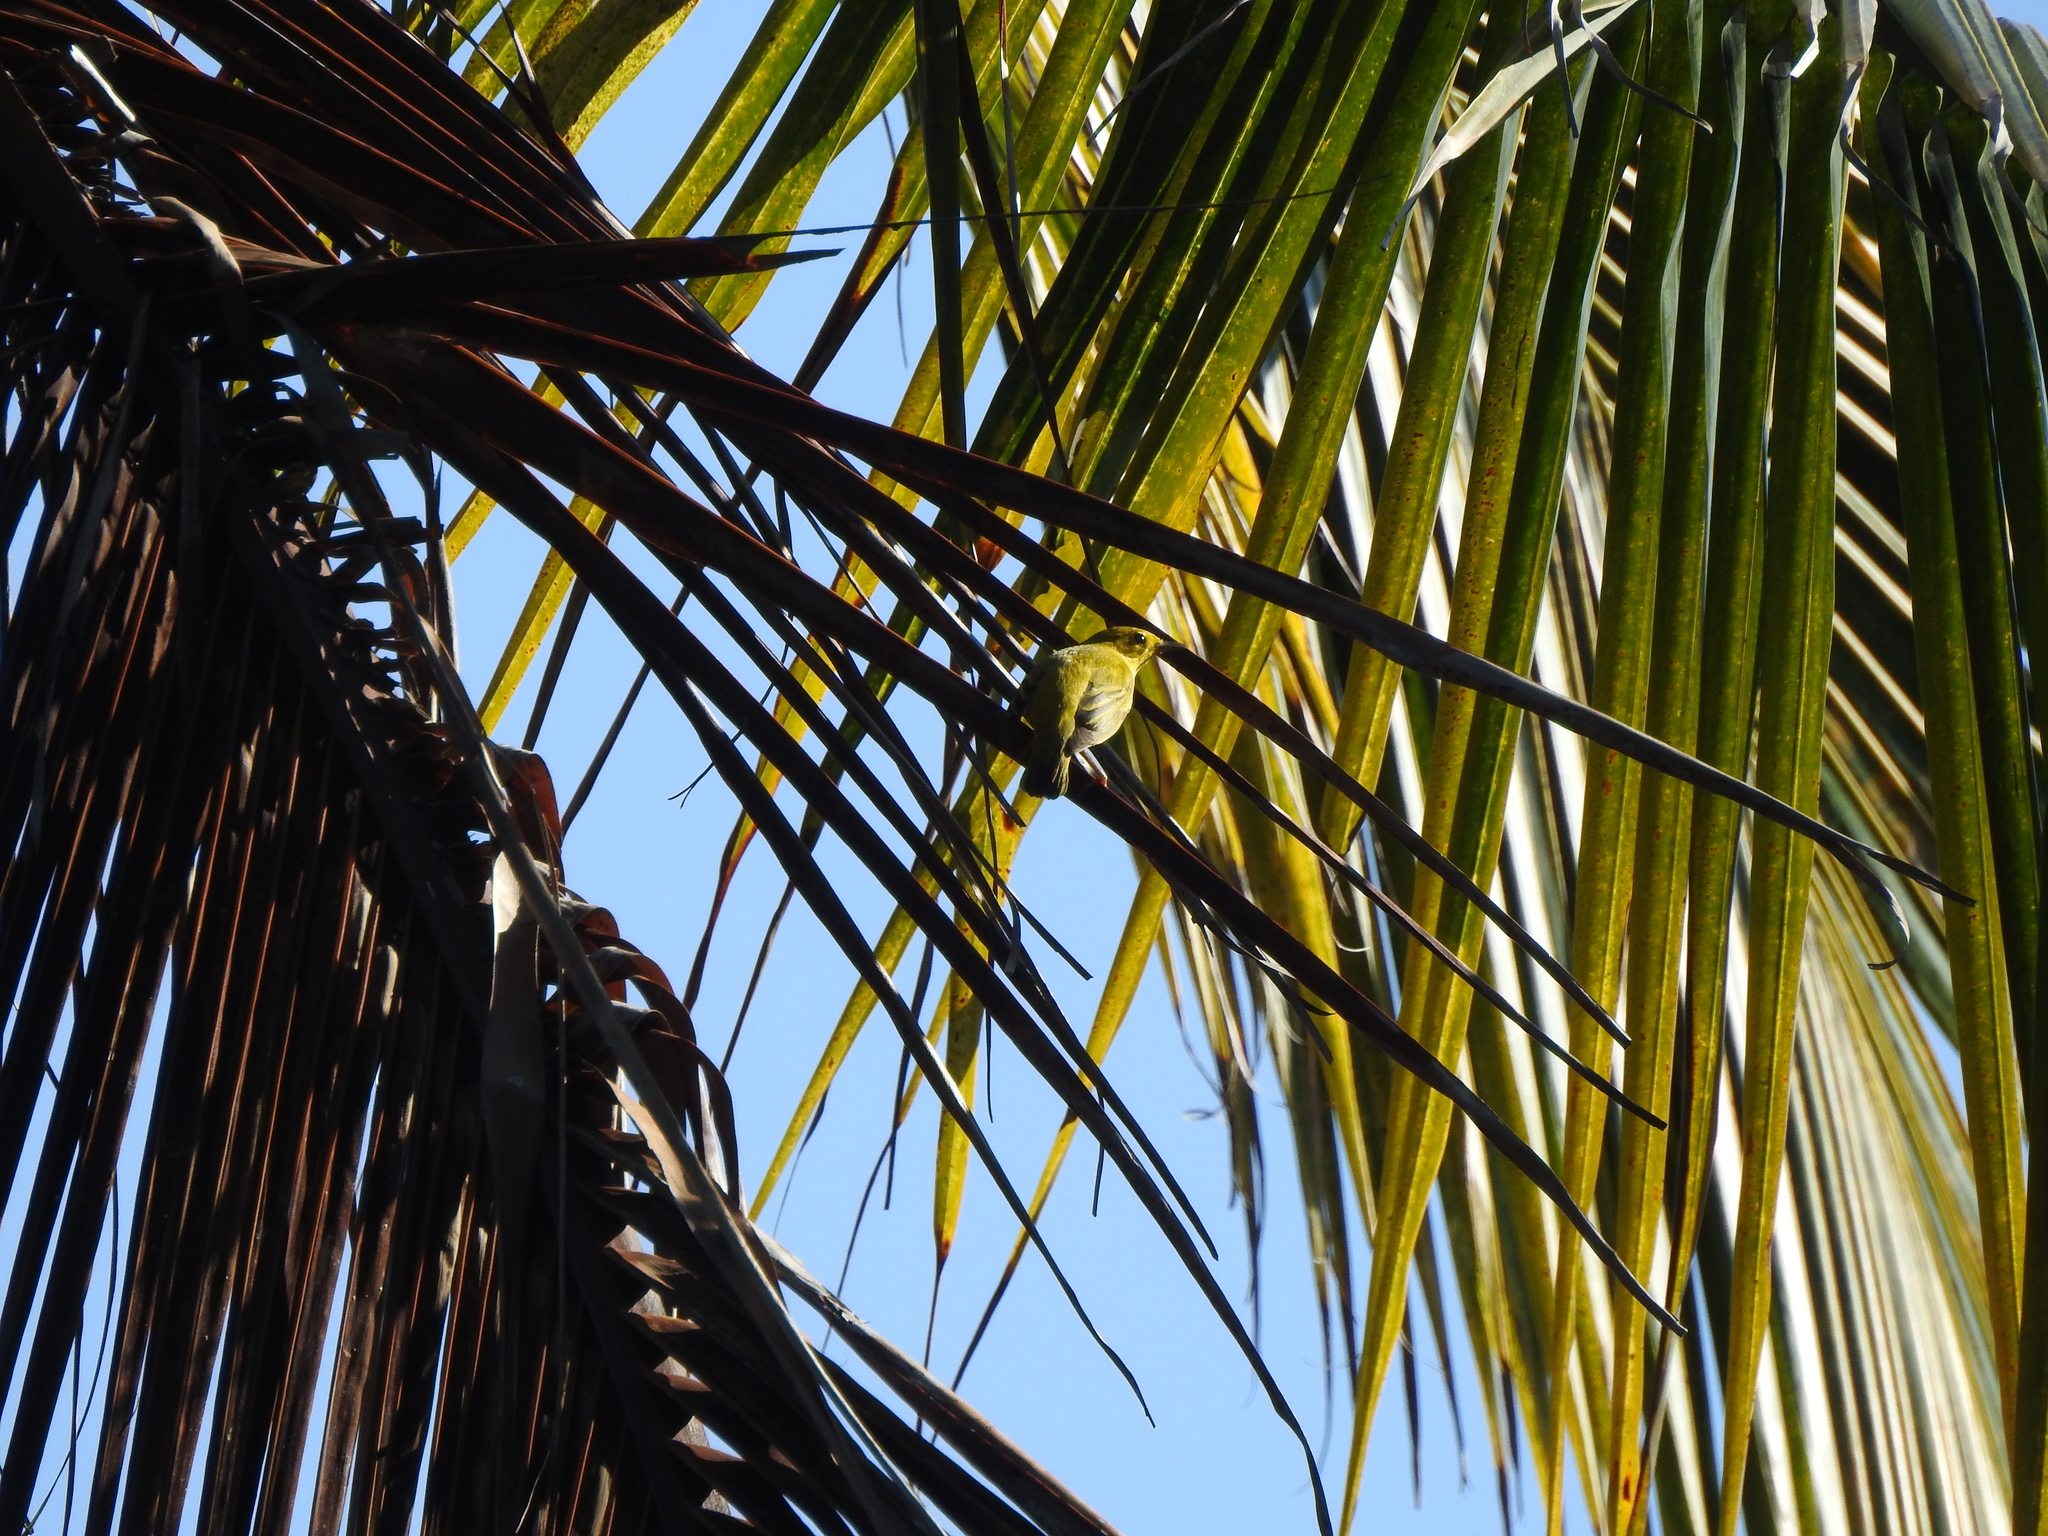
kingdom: Animalia
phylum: Chordata
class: Aves
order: Passeriformes
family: Parulidae
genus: Setophaga
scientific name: Setophaga petechia
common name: Yellow warbler
